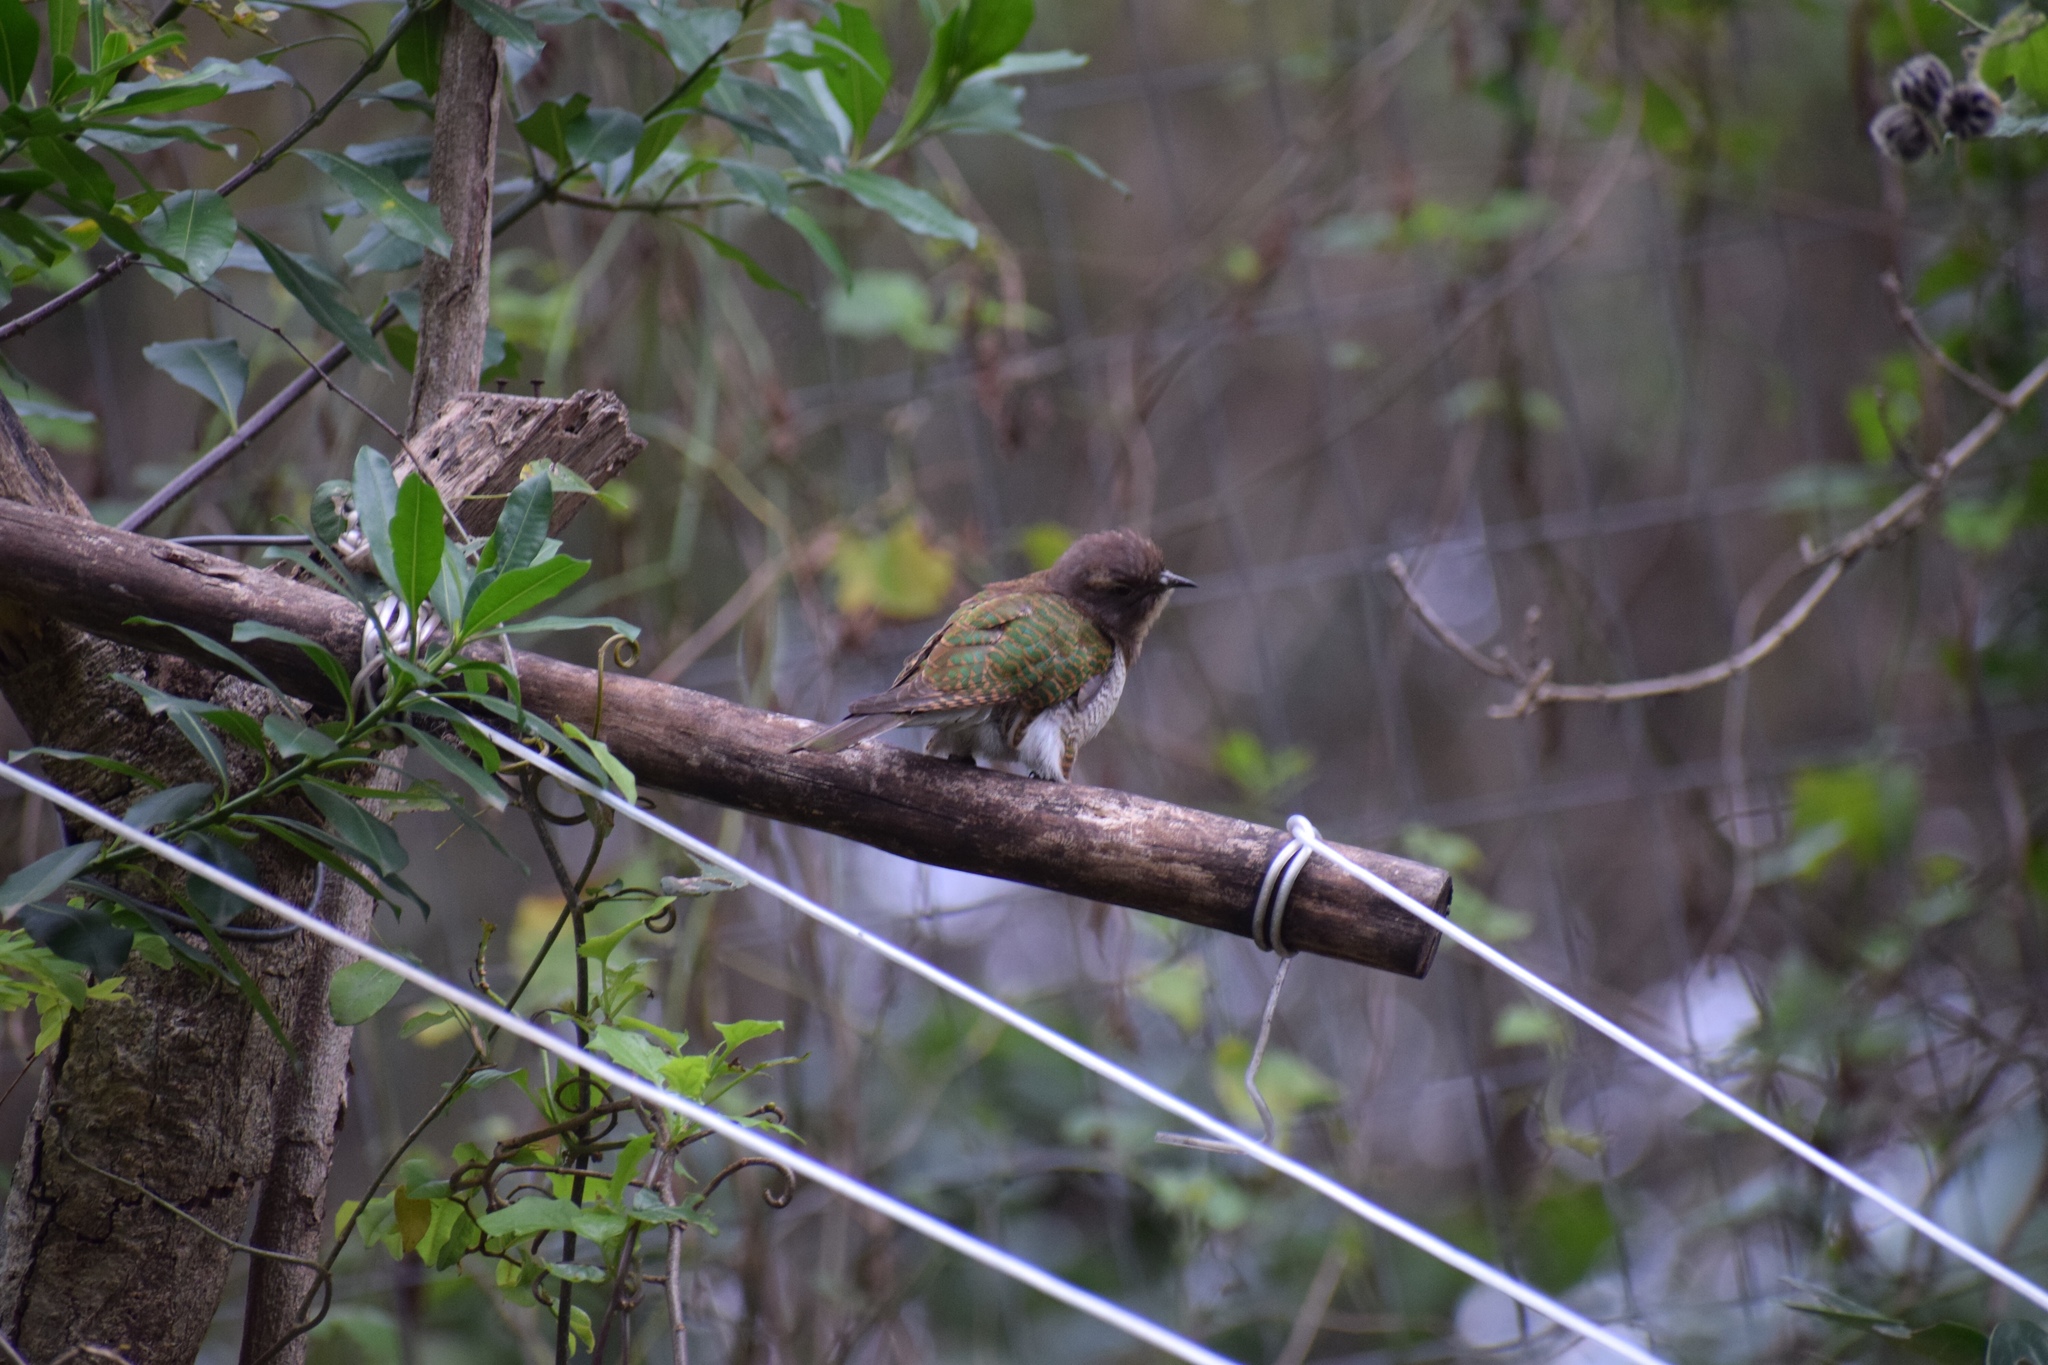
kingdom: Animalia
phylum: Chordata
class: Aves
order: Cuculiformes
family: Cuculidae
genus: Chrysococcyx
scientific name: Chrysococcyx klaas
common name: Klaas's cuckoo
